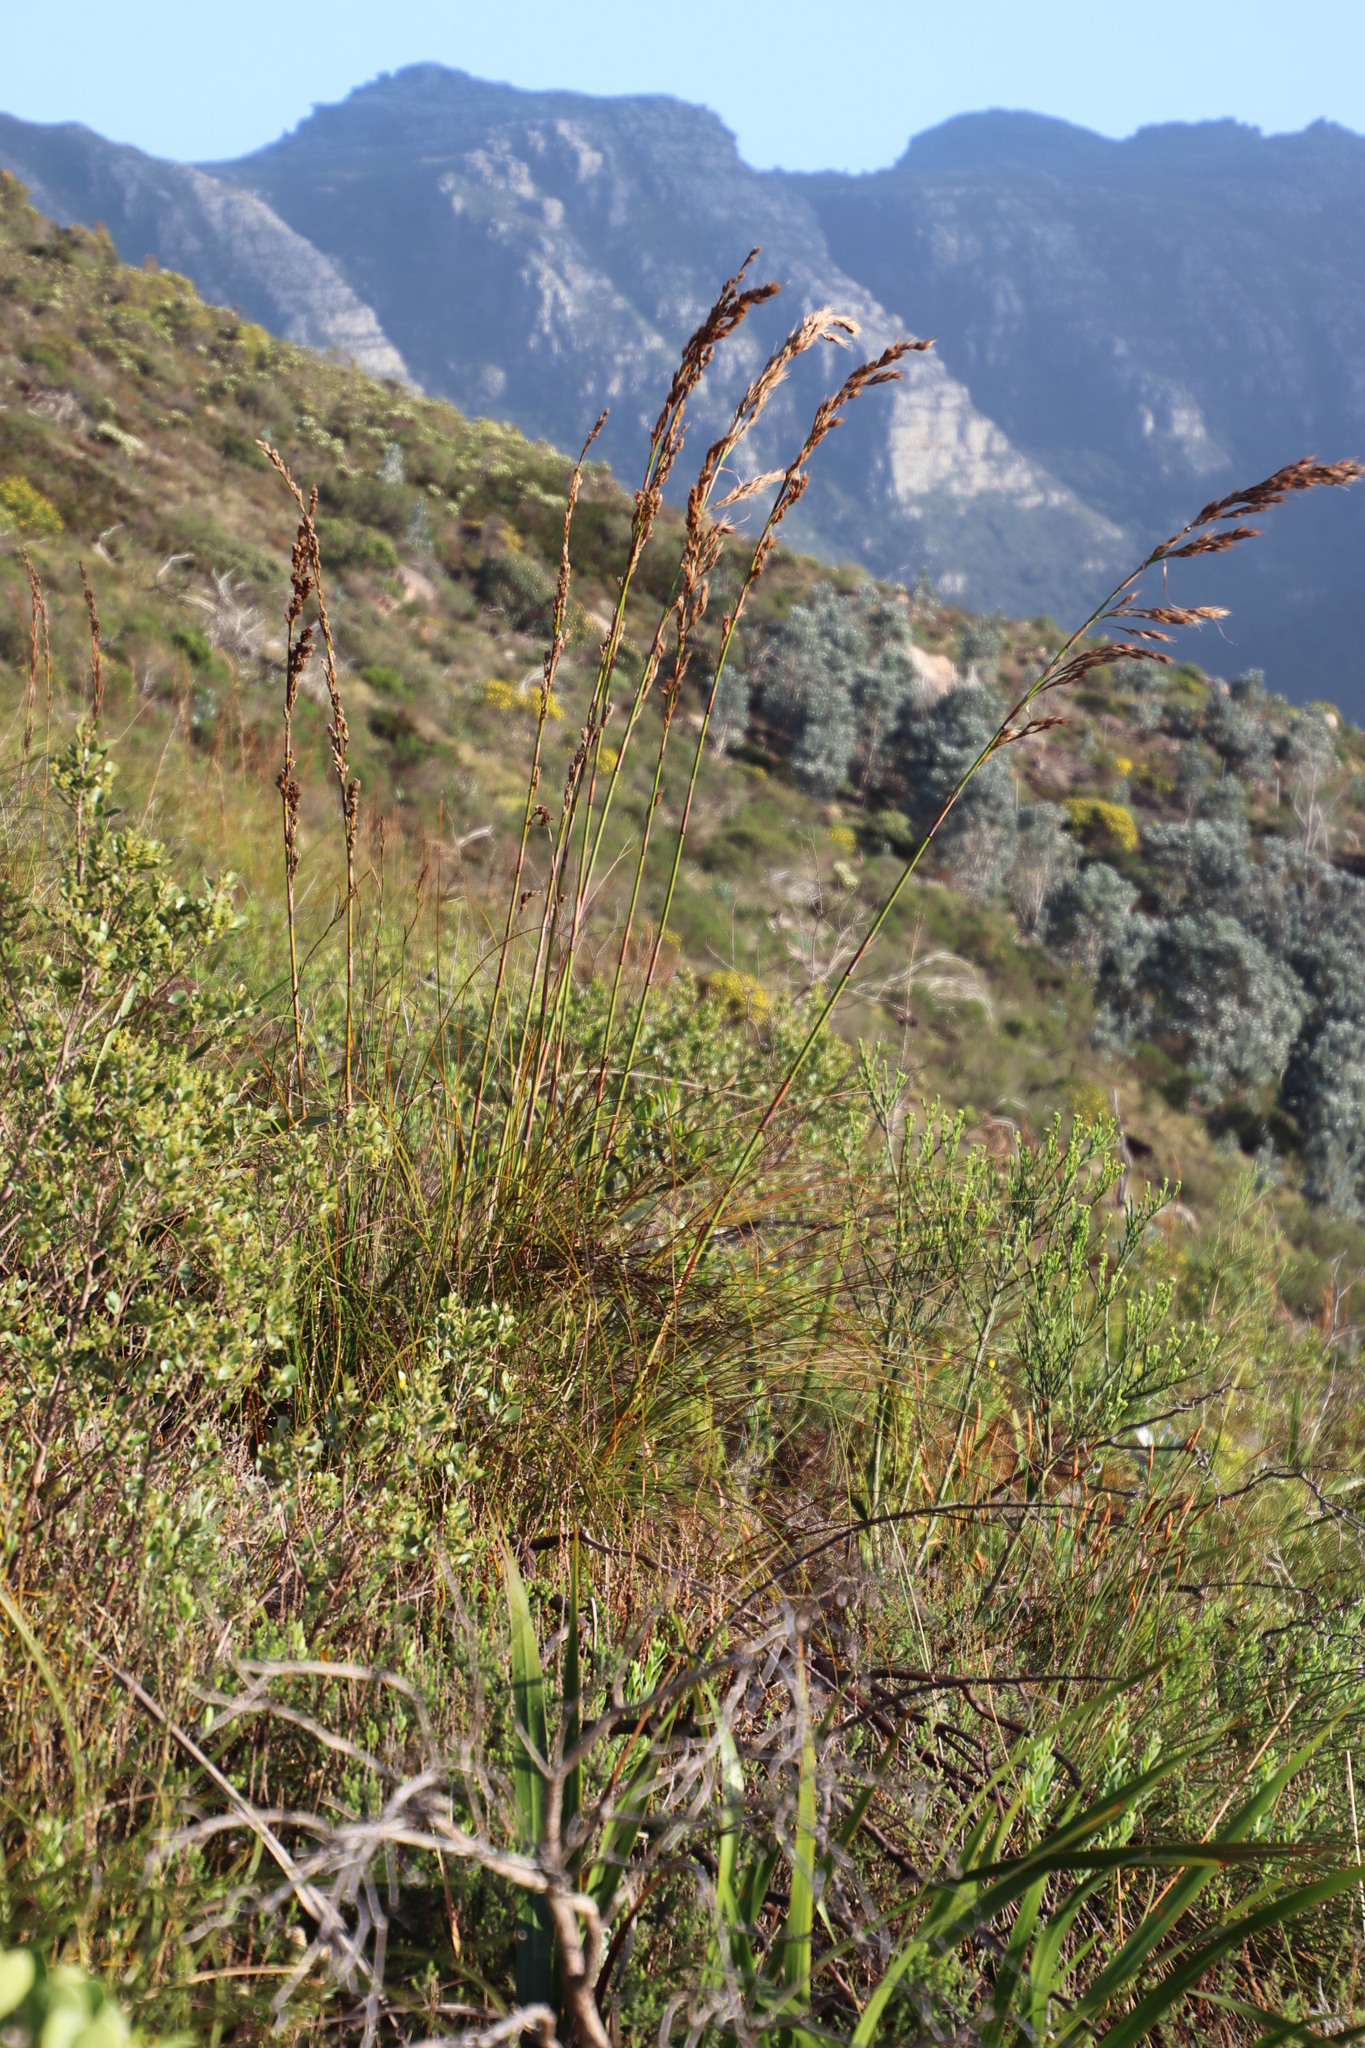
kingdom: Plantae
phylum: Tracheophyta
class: Liliopsida
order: Poales
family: Cyperaceae
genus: Tetraria
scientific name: Tetraria involucrata
